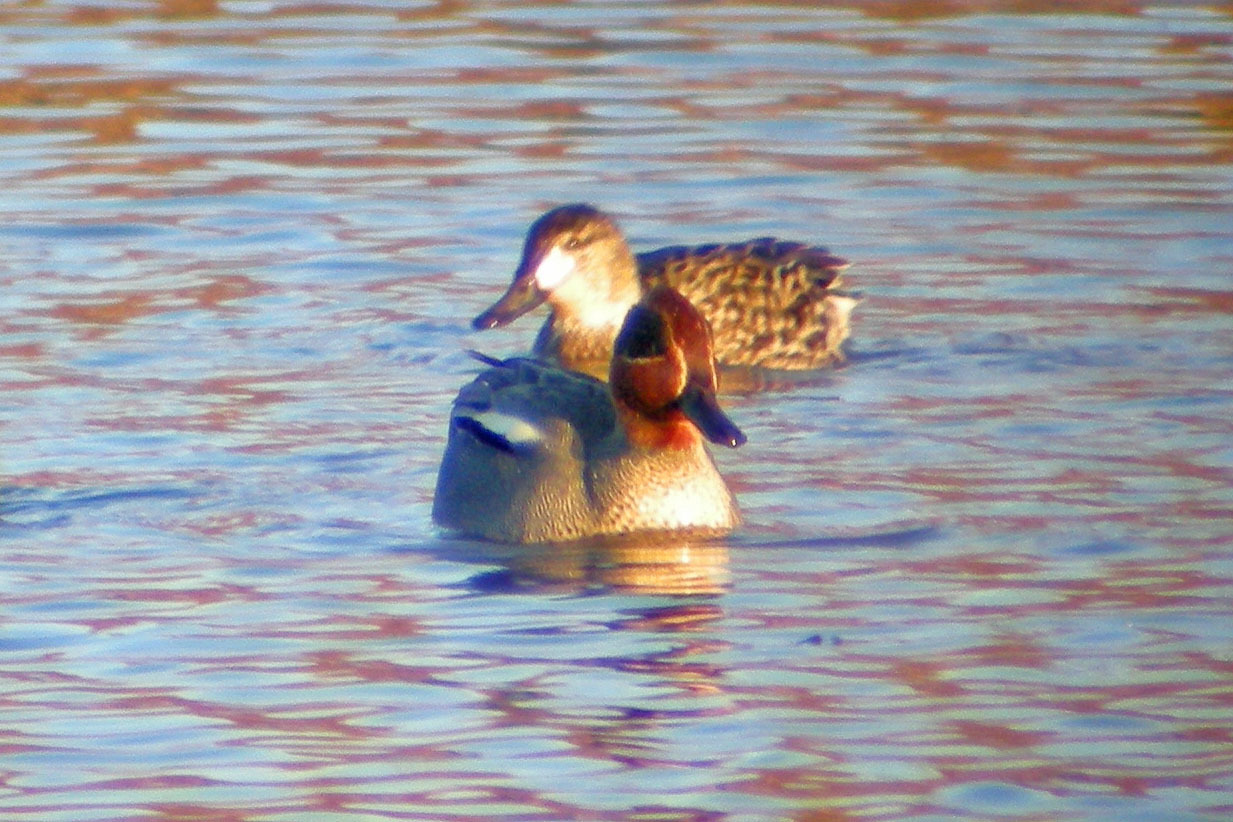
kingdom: Animalia
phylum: Chordata
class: Aves
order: Anseriformes
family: Anatidae
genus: Anas
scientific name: Anas crecca
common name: Eurasian teal
